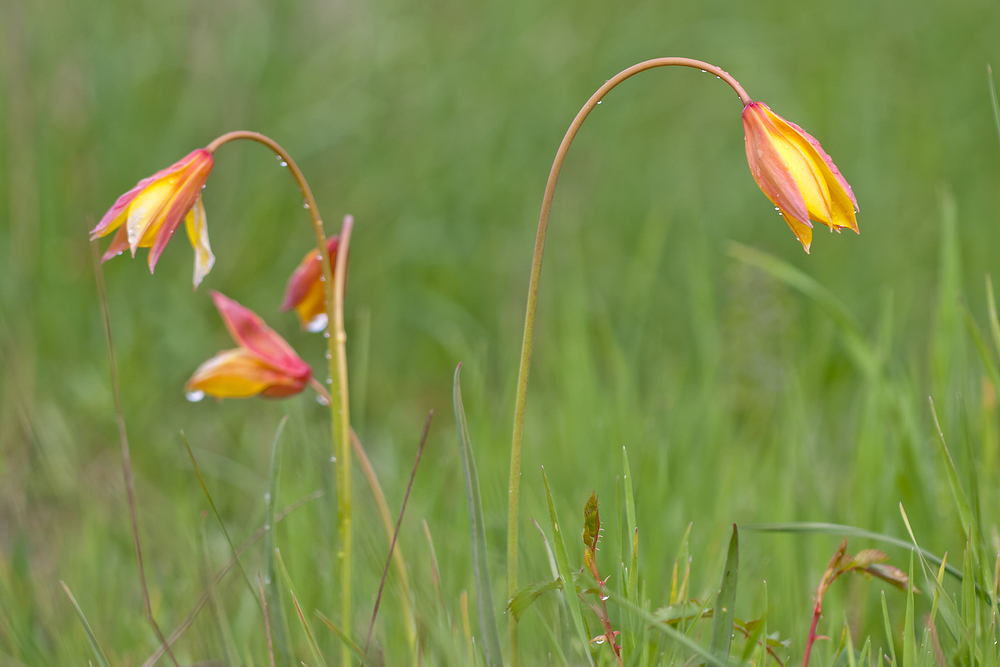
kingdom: Plantae
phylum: Tracheophyta
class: Liliopsida
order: Liliales
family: Liliaceae
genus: Tulipa
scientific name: Tulipa sylvestris
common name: Wild tulip
